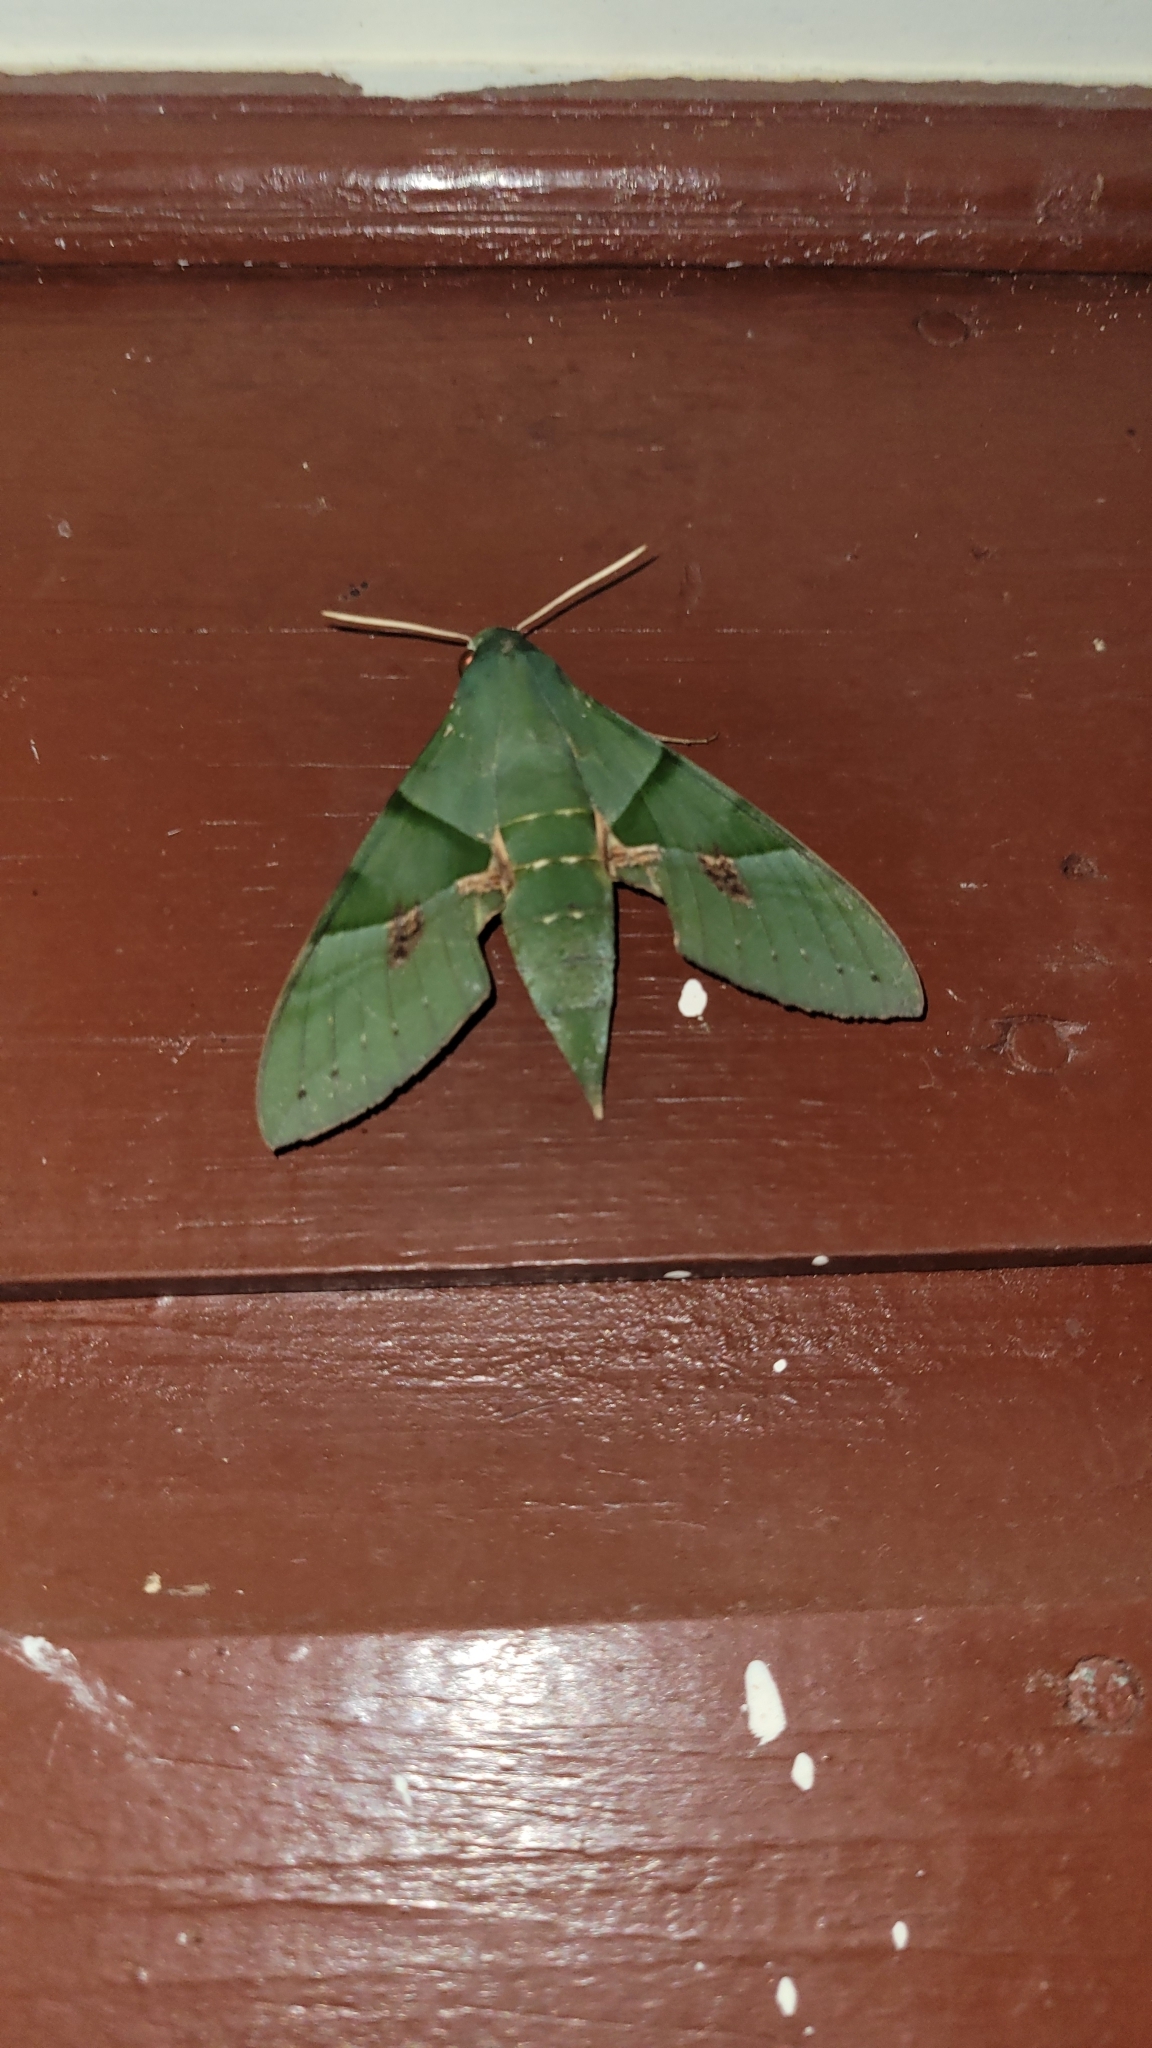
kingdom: Animalia
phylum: Arthropoda
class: Insecta
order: Lepidoptera
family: Sphingidae
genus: Eumorpha
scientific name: Eumorpha labruscae
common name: Gaudy sphinx
